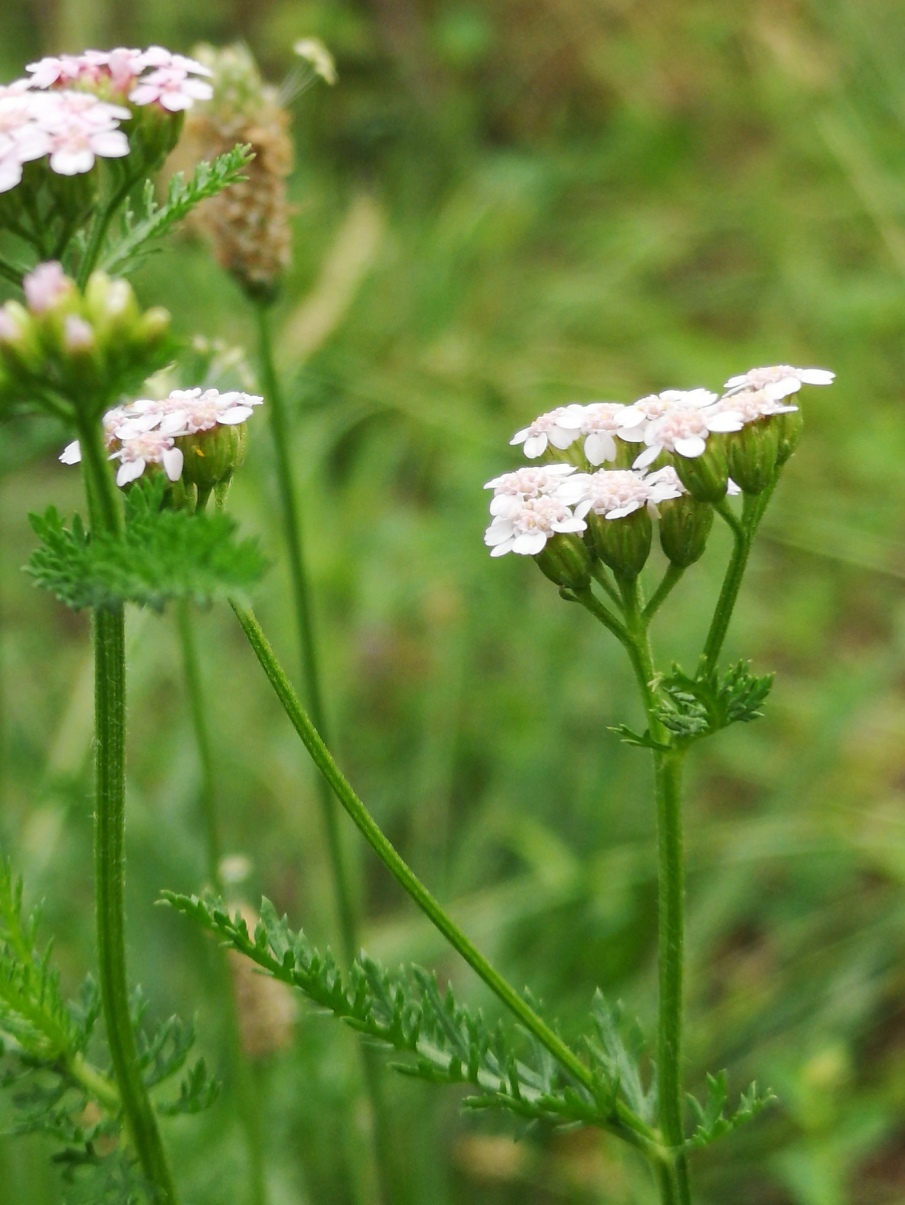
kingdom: Plantae
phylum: Tracheophyta
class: Magnoliopsida
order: Asterales
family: Asteraceae
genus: Achillea
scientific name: Achillea millefolium
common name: Yarrow
